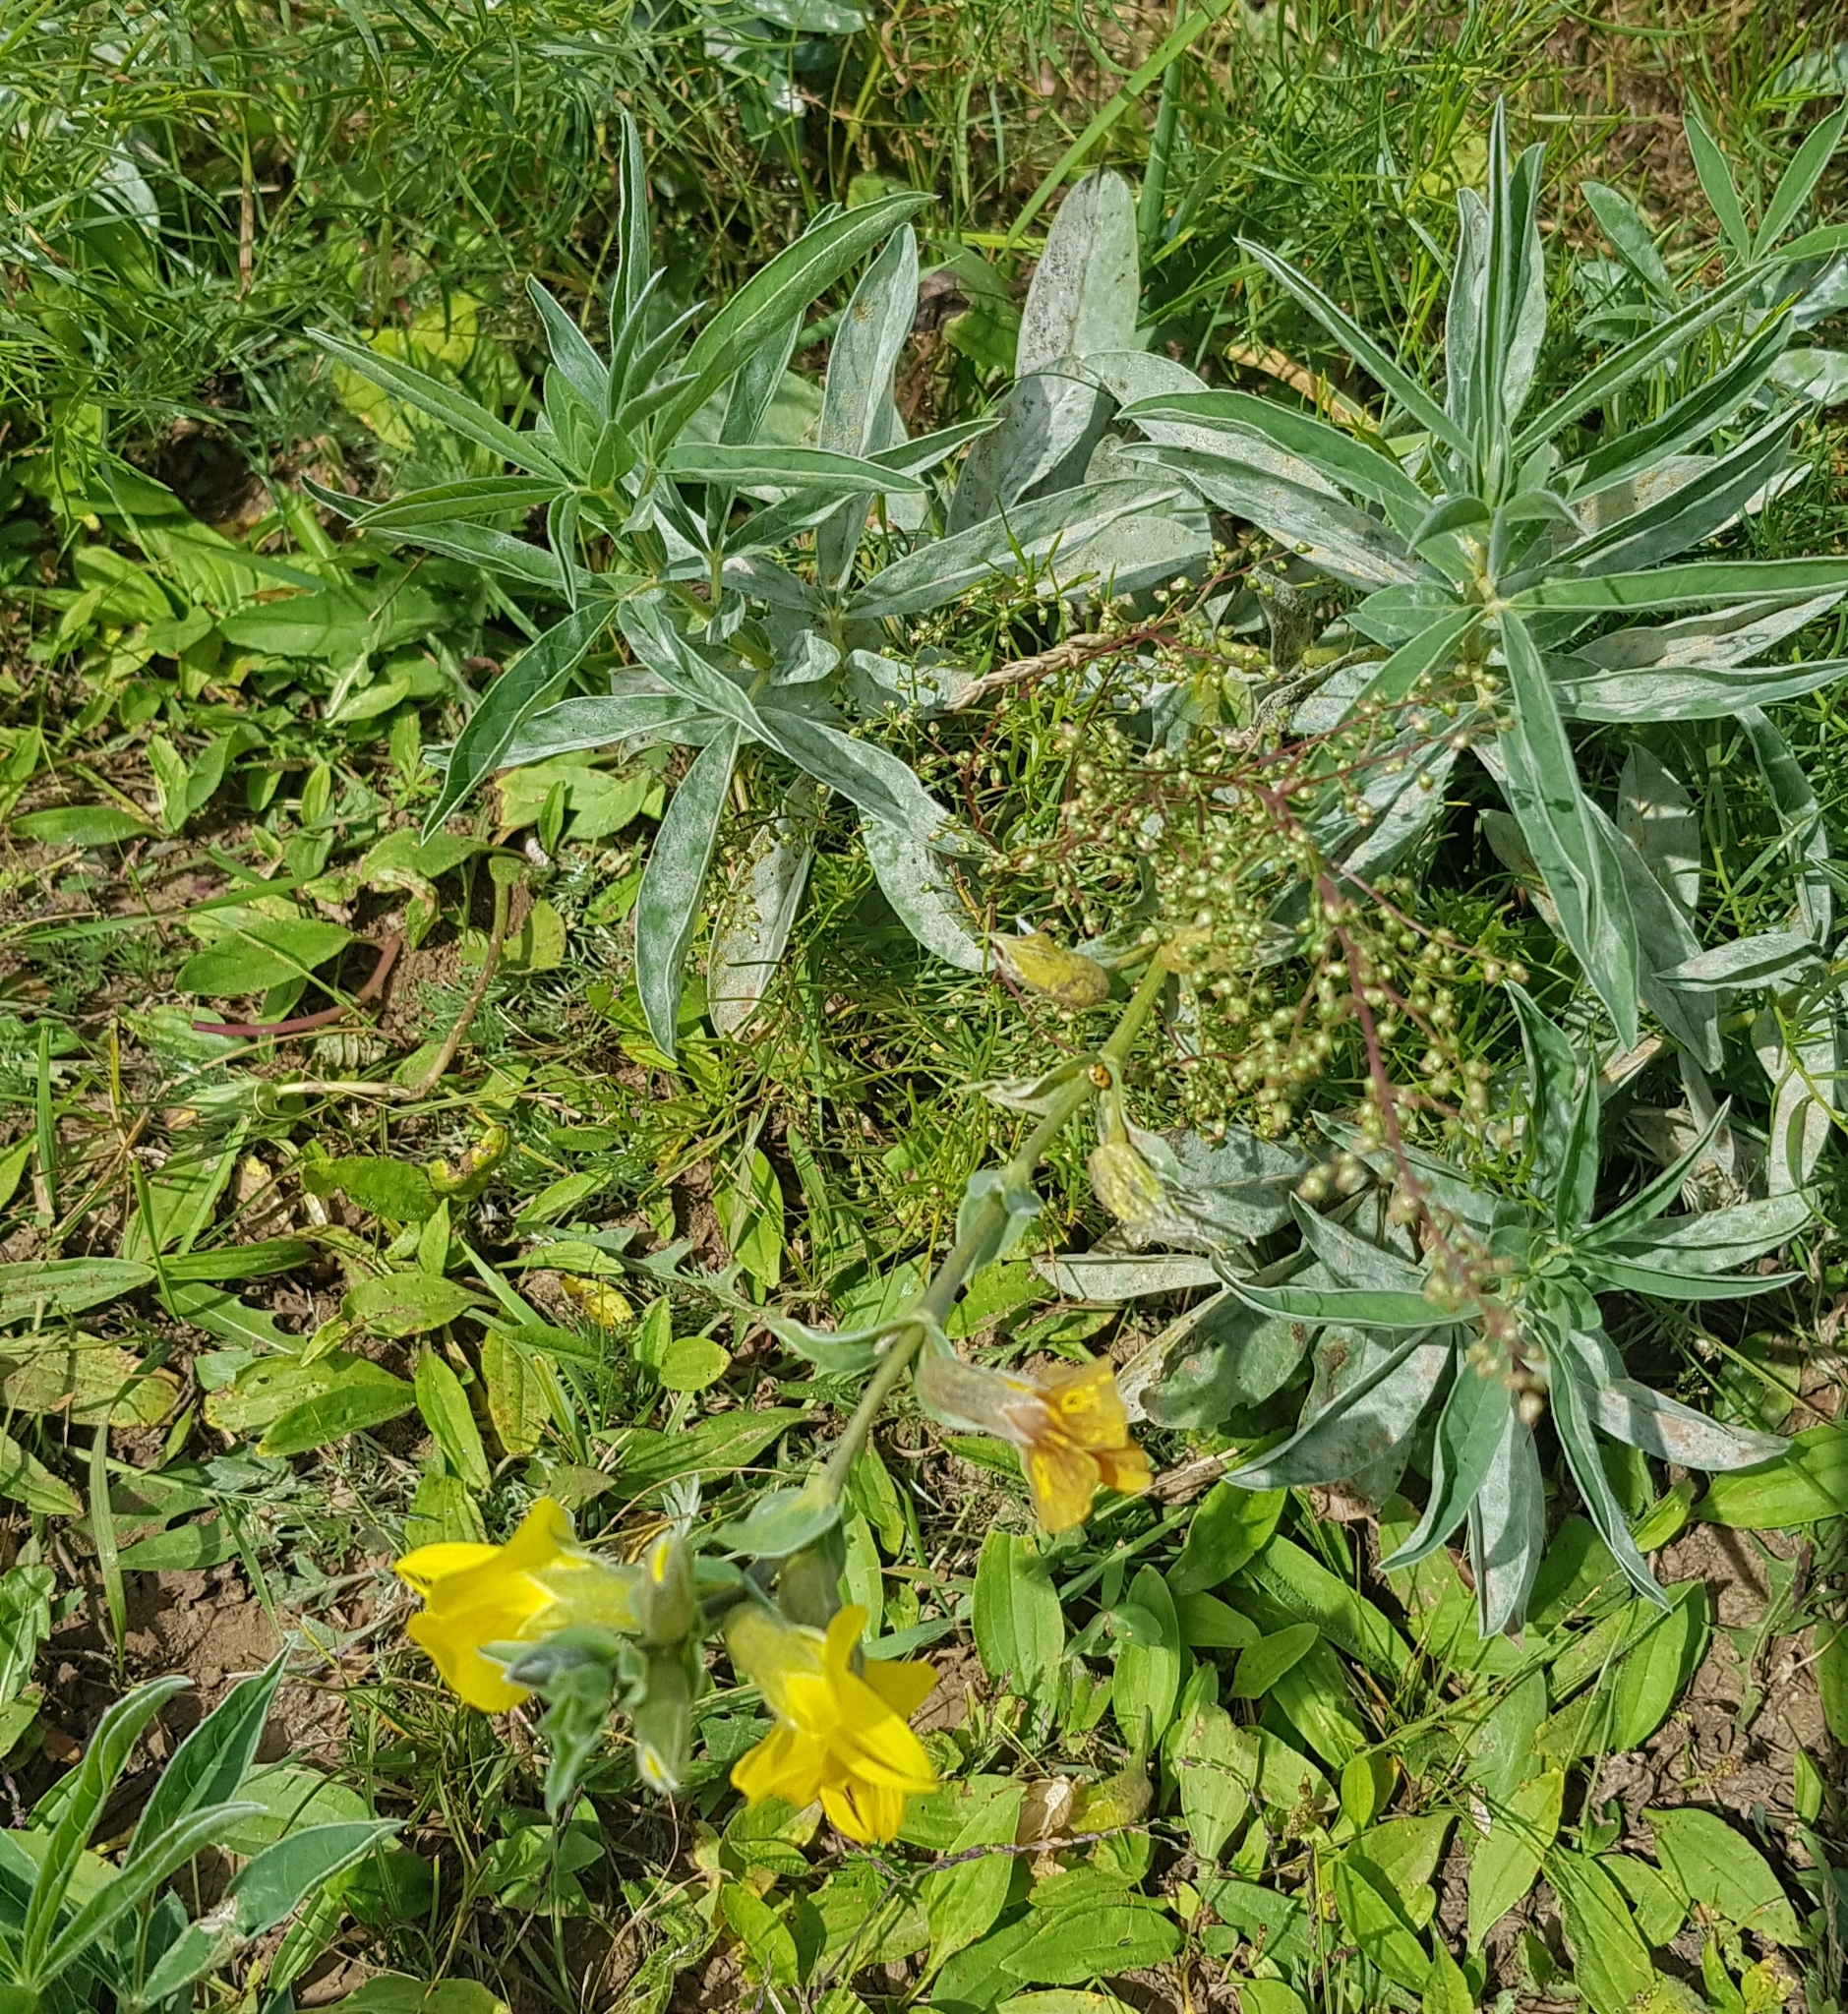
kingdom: Plantae
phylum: Tracheophyta
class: Magnoliopsida
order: Fabales
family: Fabaceae
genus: Thermopsis
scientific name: Thermopsis dahurica
